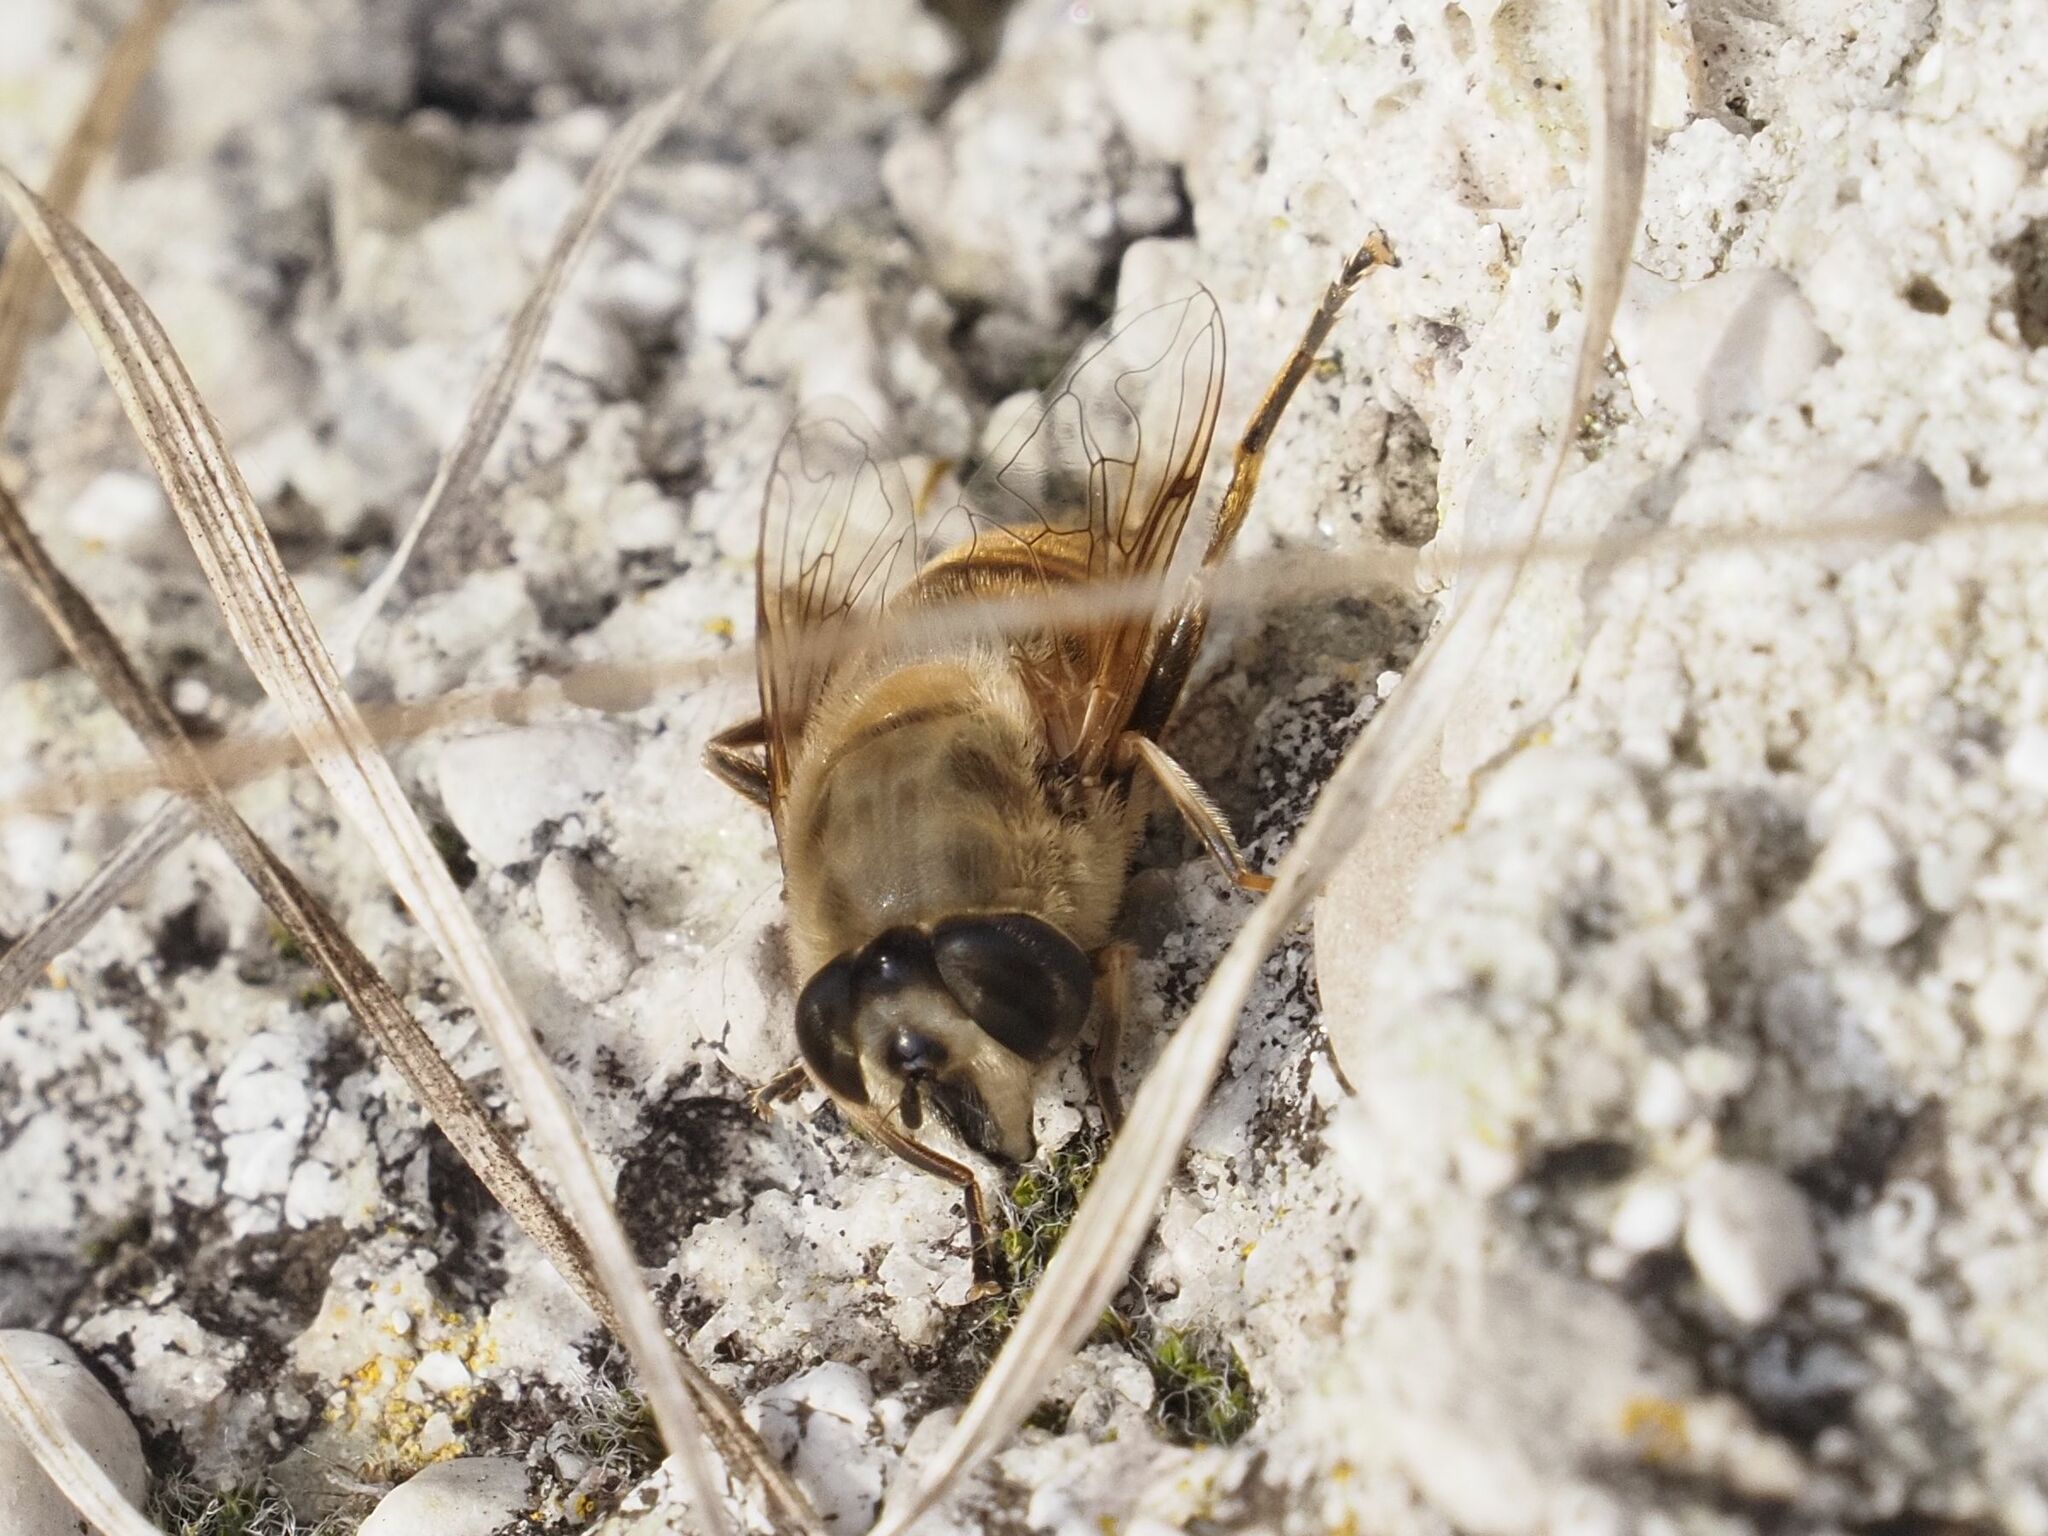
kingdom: Animalia
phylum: Arthropoda
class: Insecta
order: Diptera
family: Syrphidae
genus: Eristalis
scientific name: Eristalis tenax
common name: Drone fly
